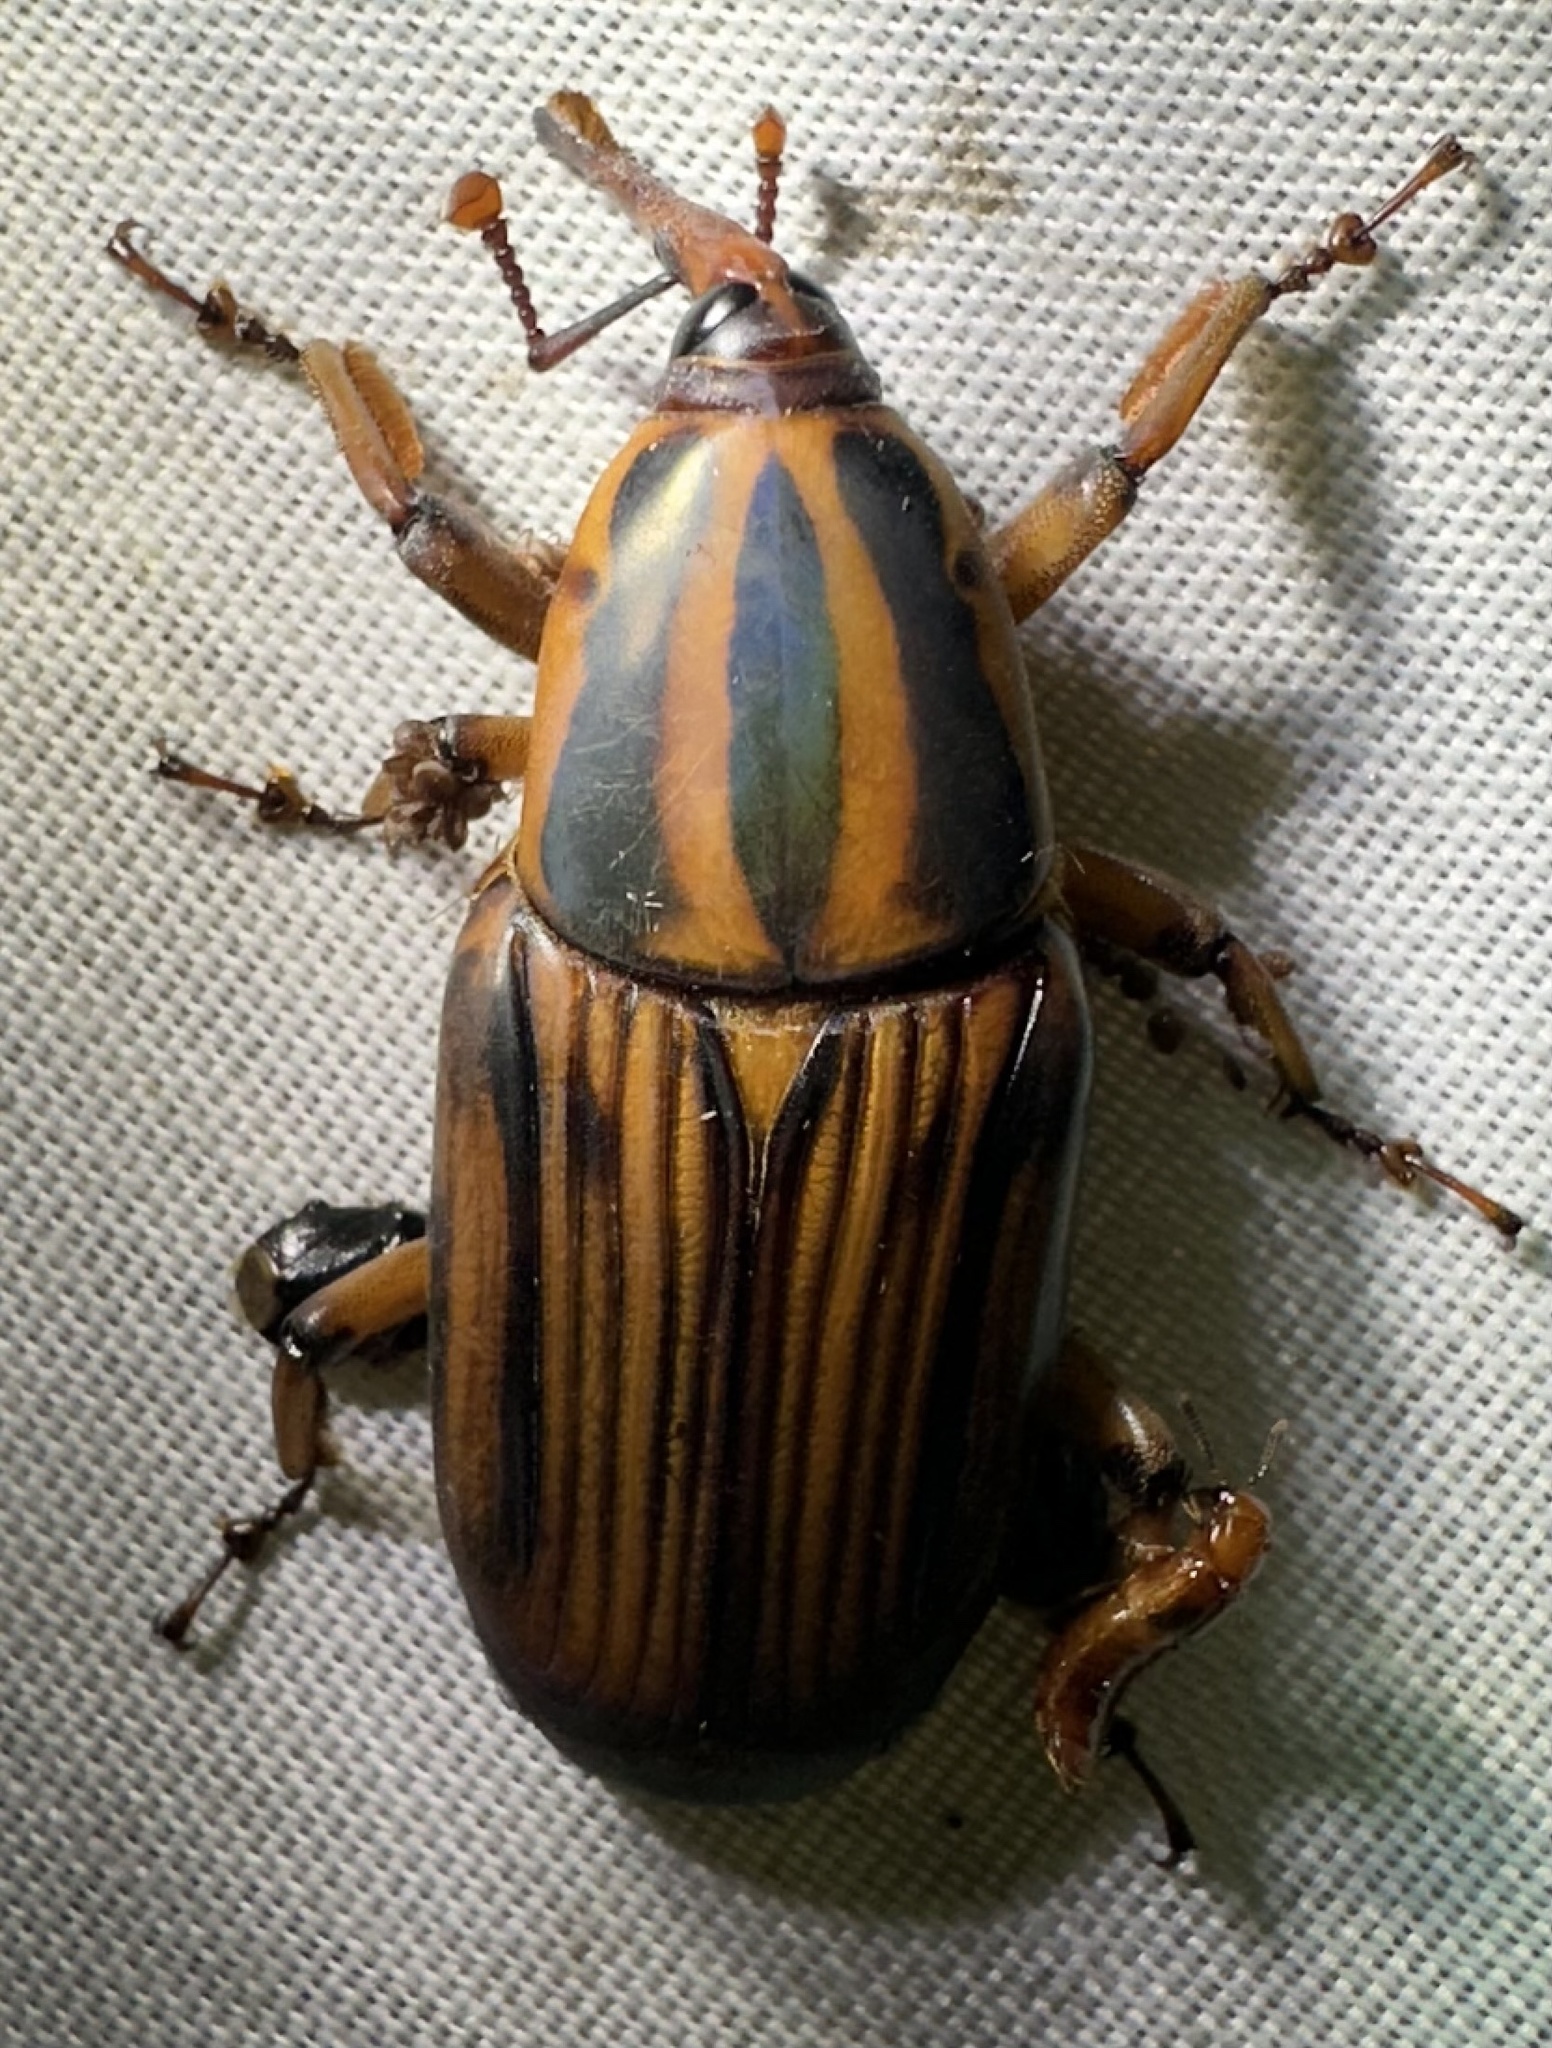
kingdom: Animalia
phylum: Arthropoda
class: Insecta
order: Coleoptera
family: Dryophthoridae
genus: Rhynchophorus
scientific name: Rhynchophorus phoenicis
